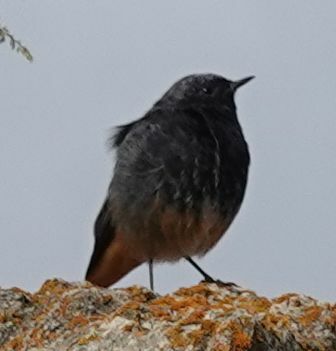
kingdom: Animalia
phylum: Chordata
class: Aves
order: Passeriformes
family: Muscicapidae
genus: Phoenicurus
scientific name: Phoenicurus ochruros
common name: Black redstart
